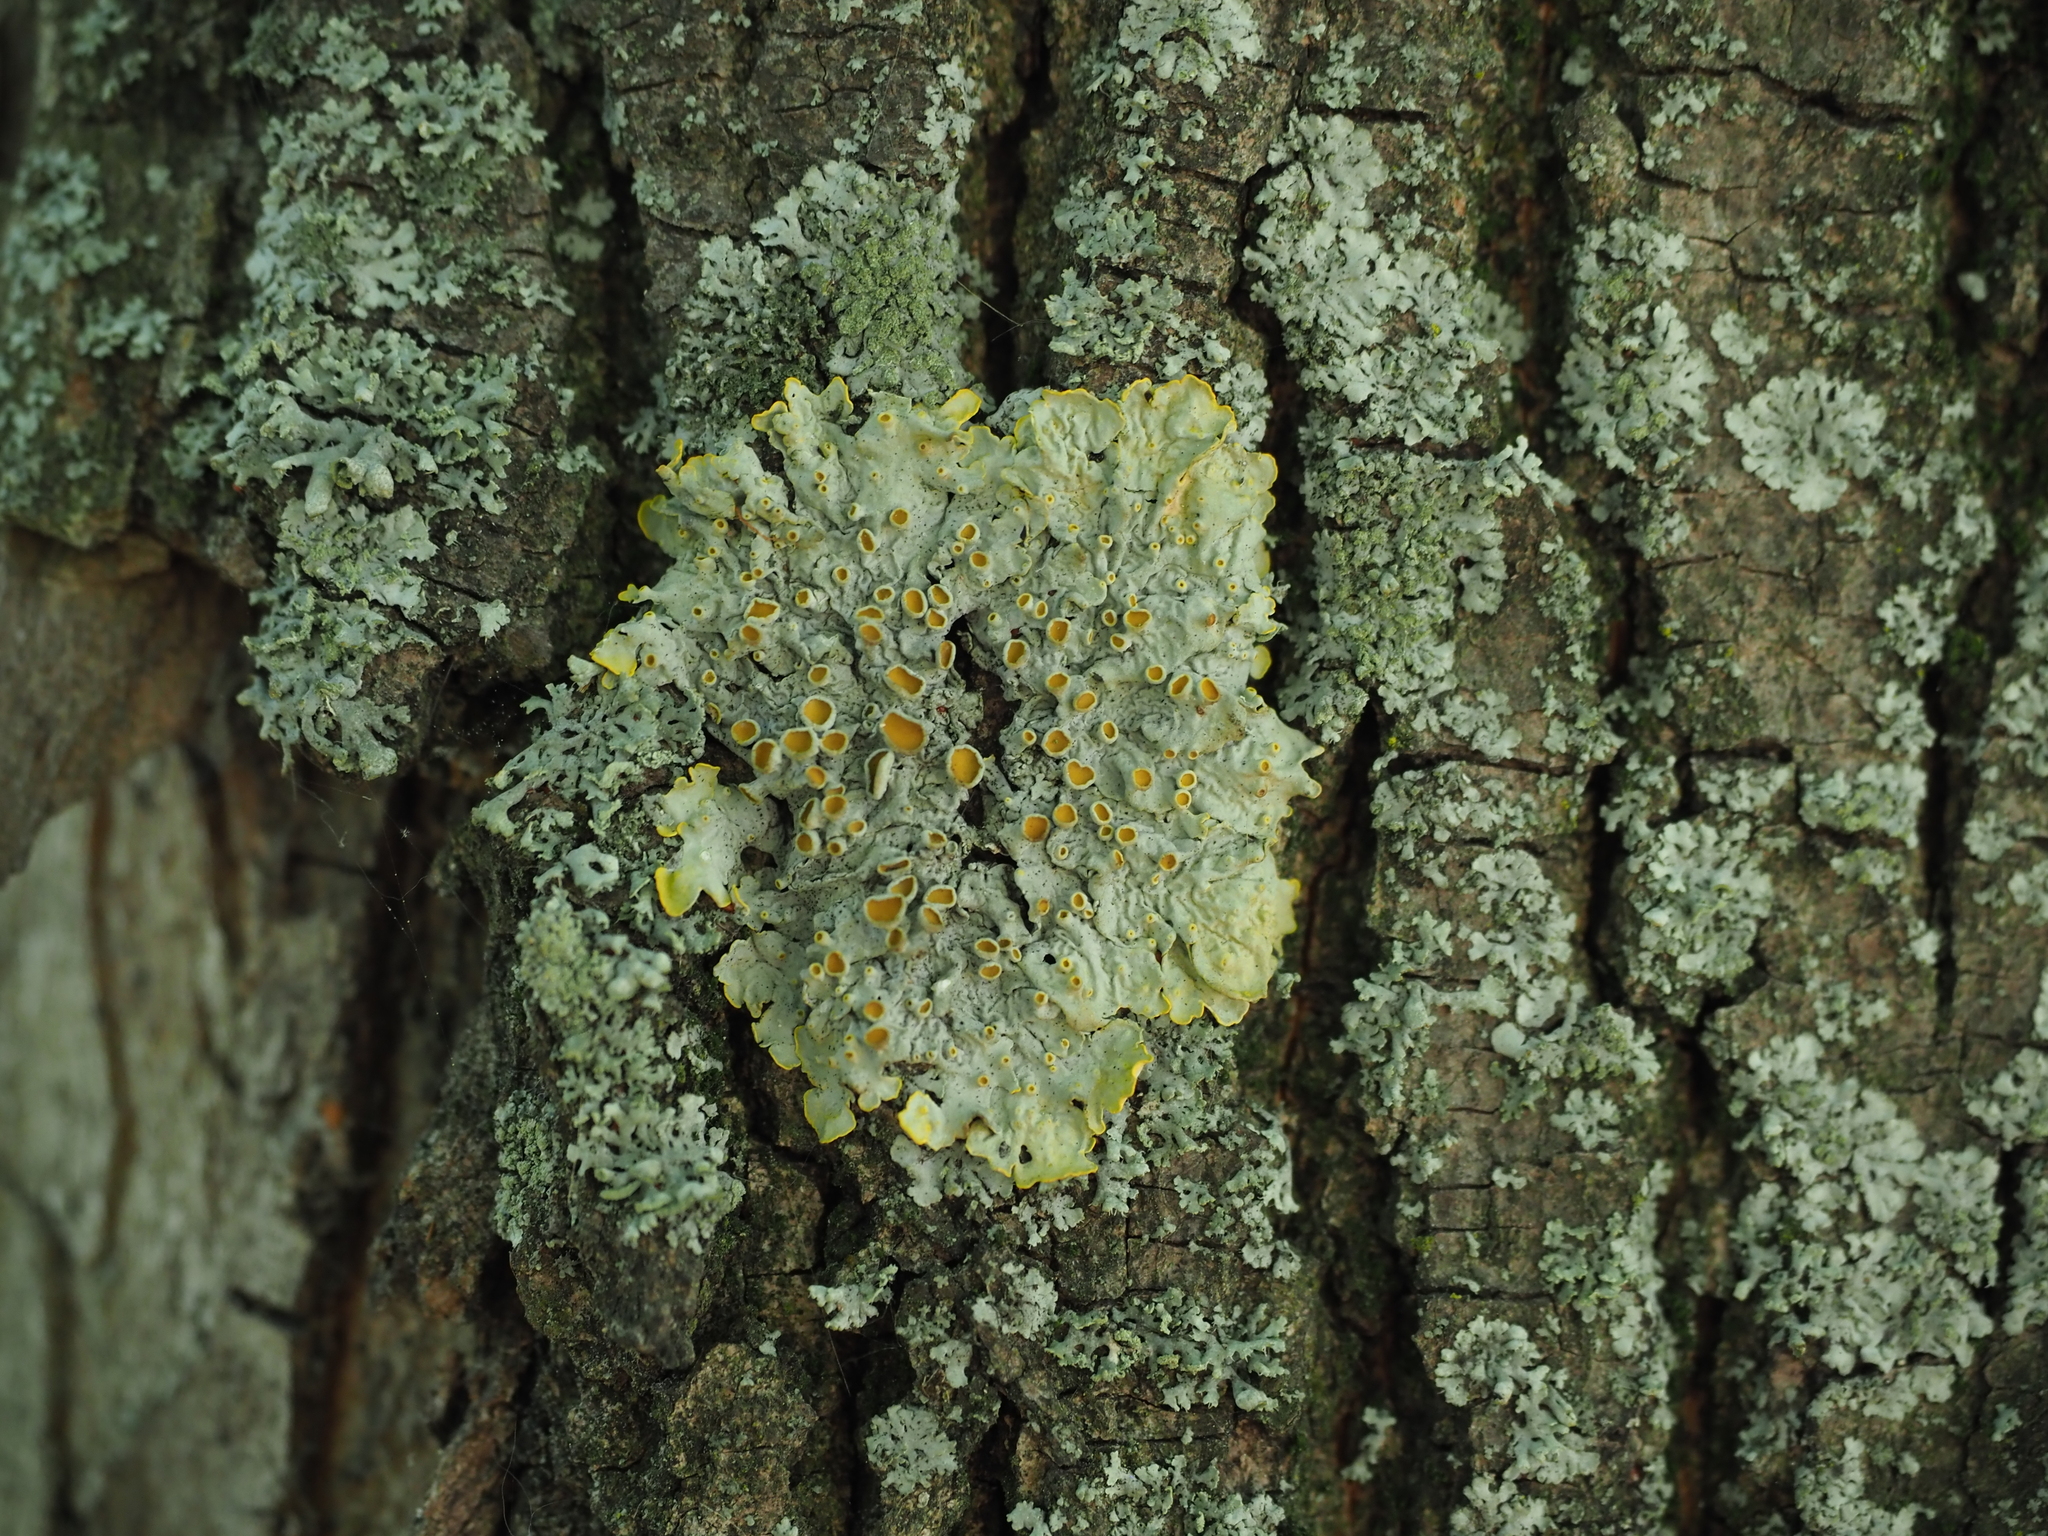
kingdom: Fungi
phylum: Ascomycota
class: Lecanoromycetes
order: Teloschistales
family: Teloschistaceae
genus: Xanthoria
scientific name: Xanthoria parietina
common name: Common orange lichen
